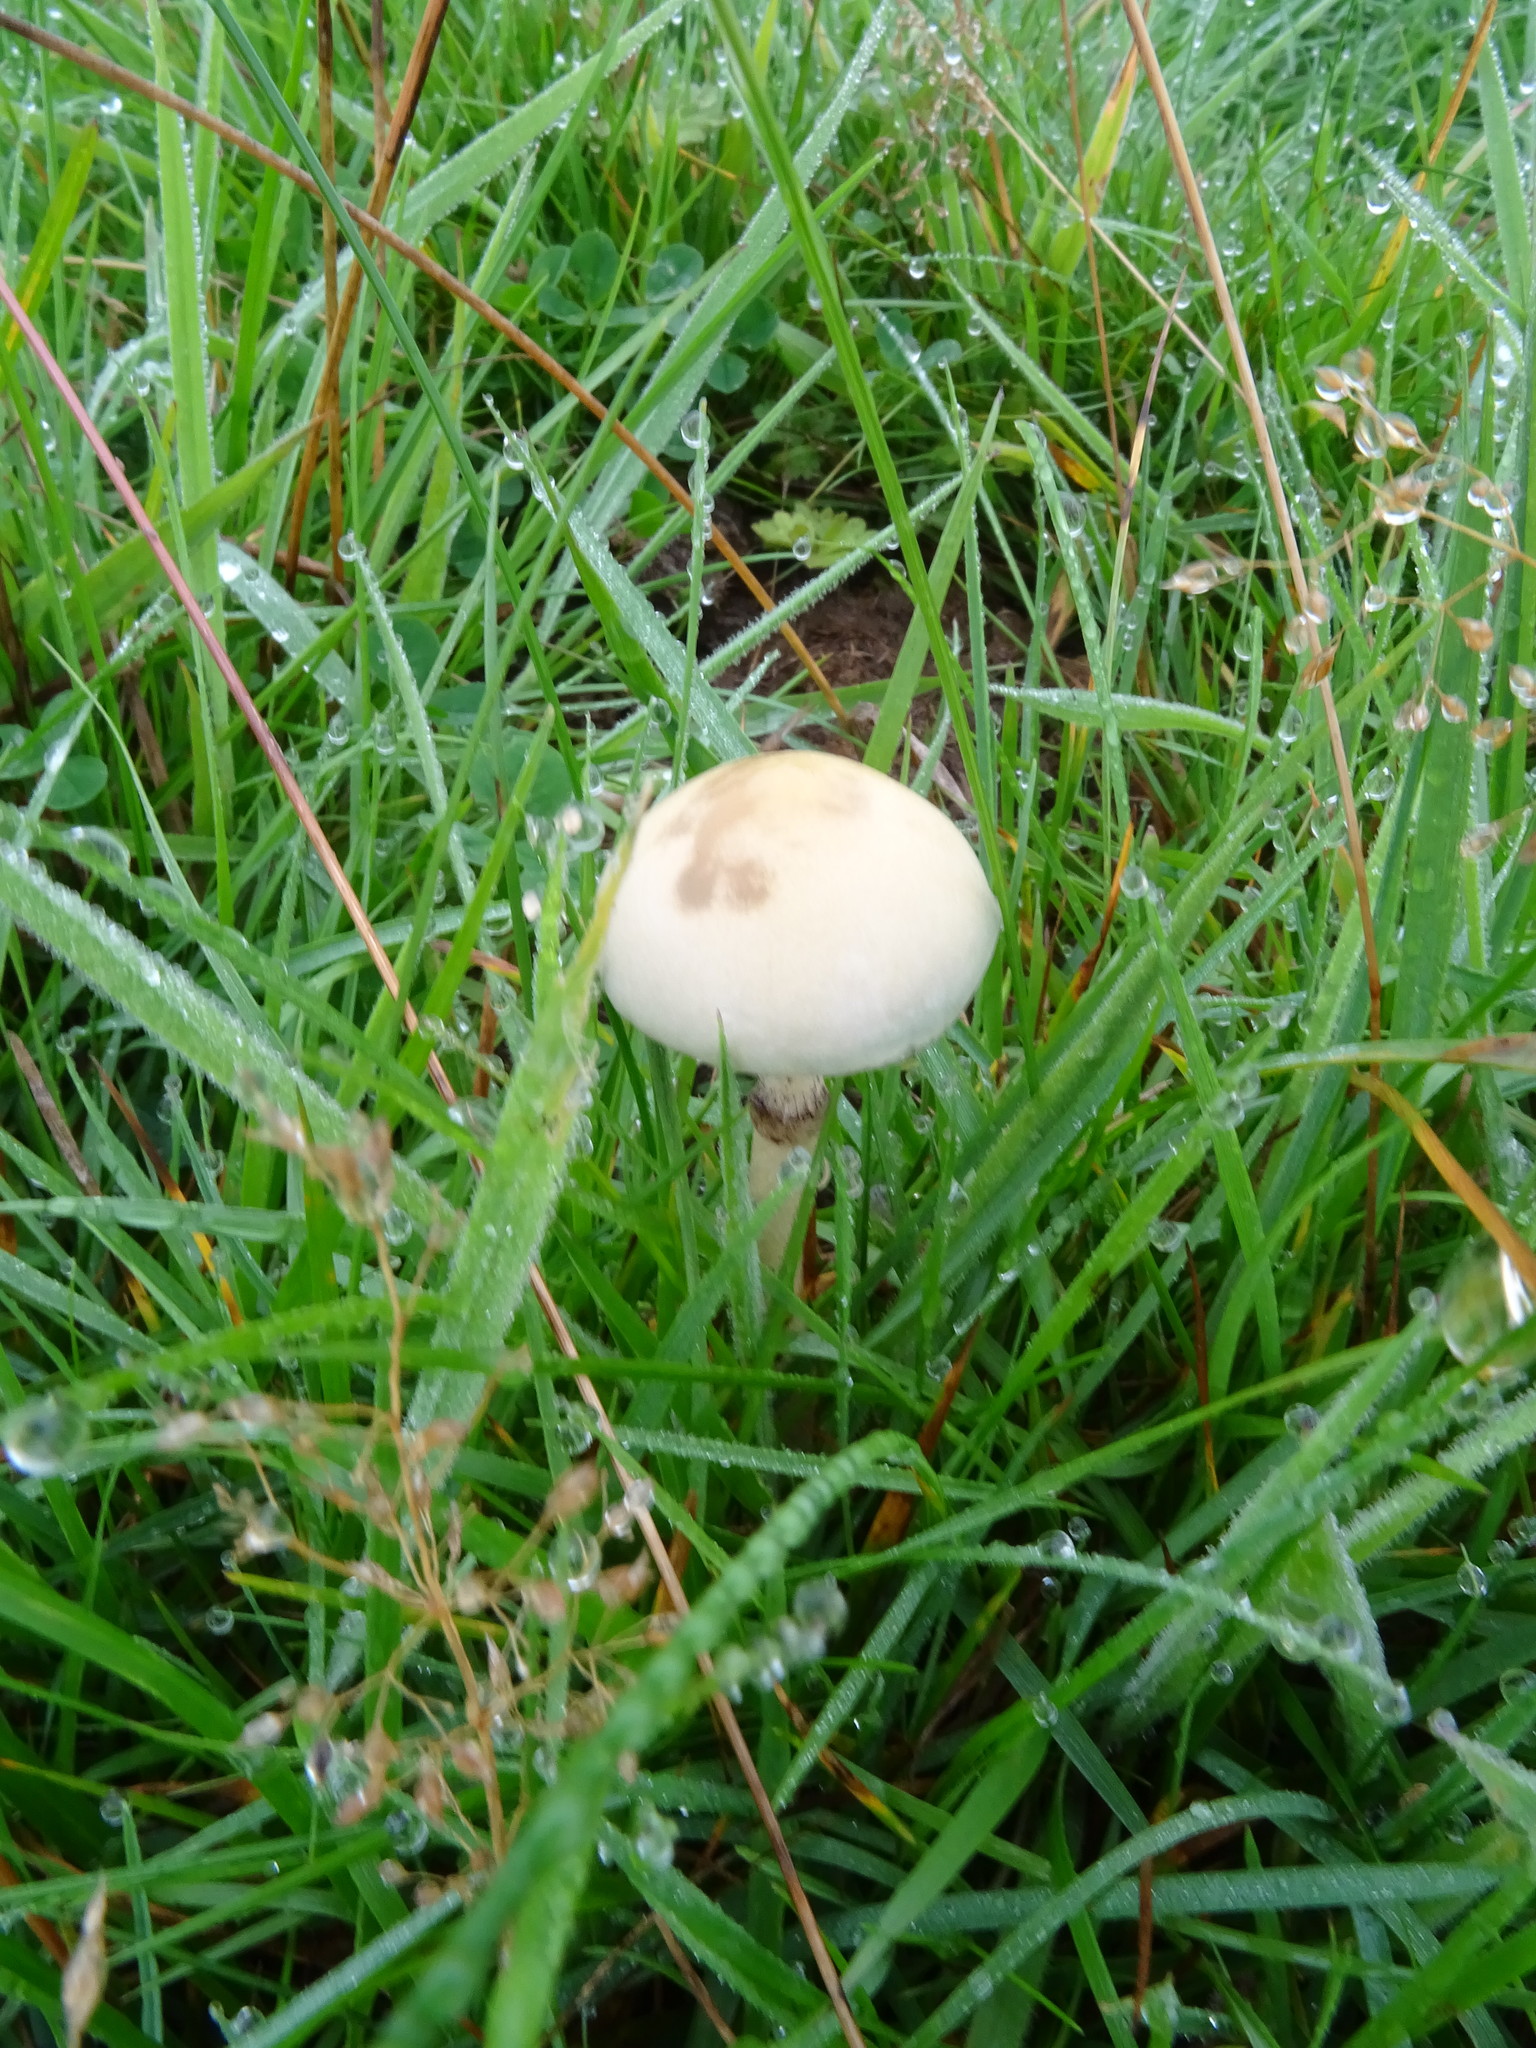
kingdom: Fungi
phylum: Basidiomycota
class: Agaricomycetes
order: Agaricales
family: Strophariaceae
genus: Protostropharia
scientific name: Protostropharia semiglobata
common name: Dung roundhead
